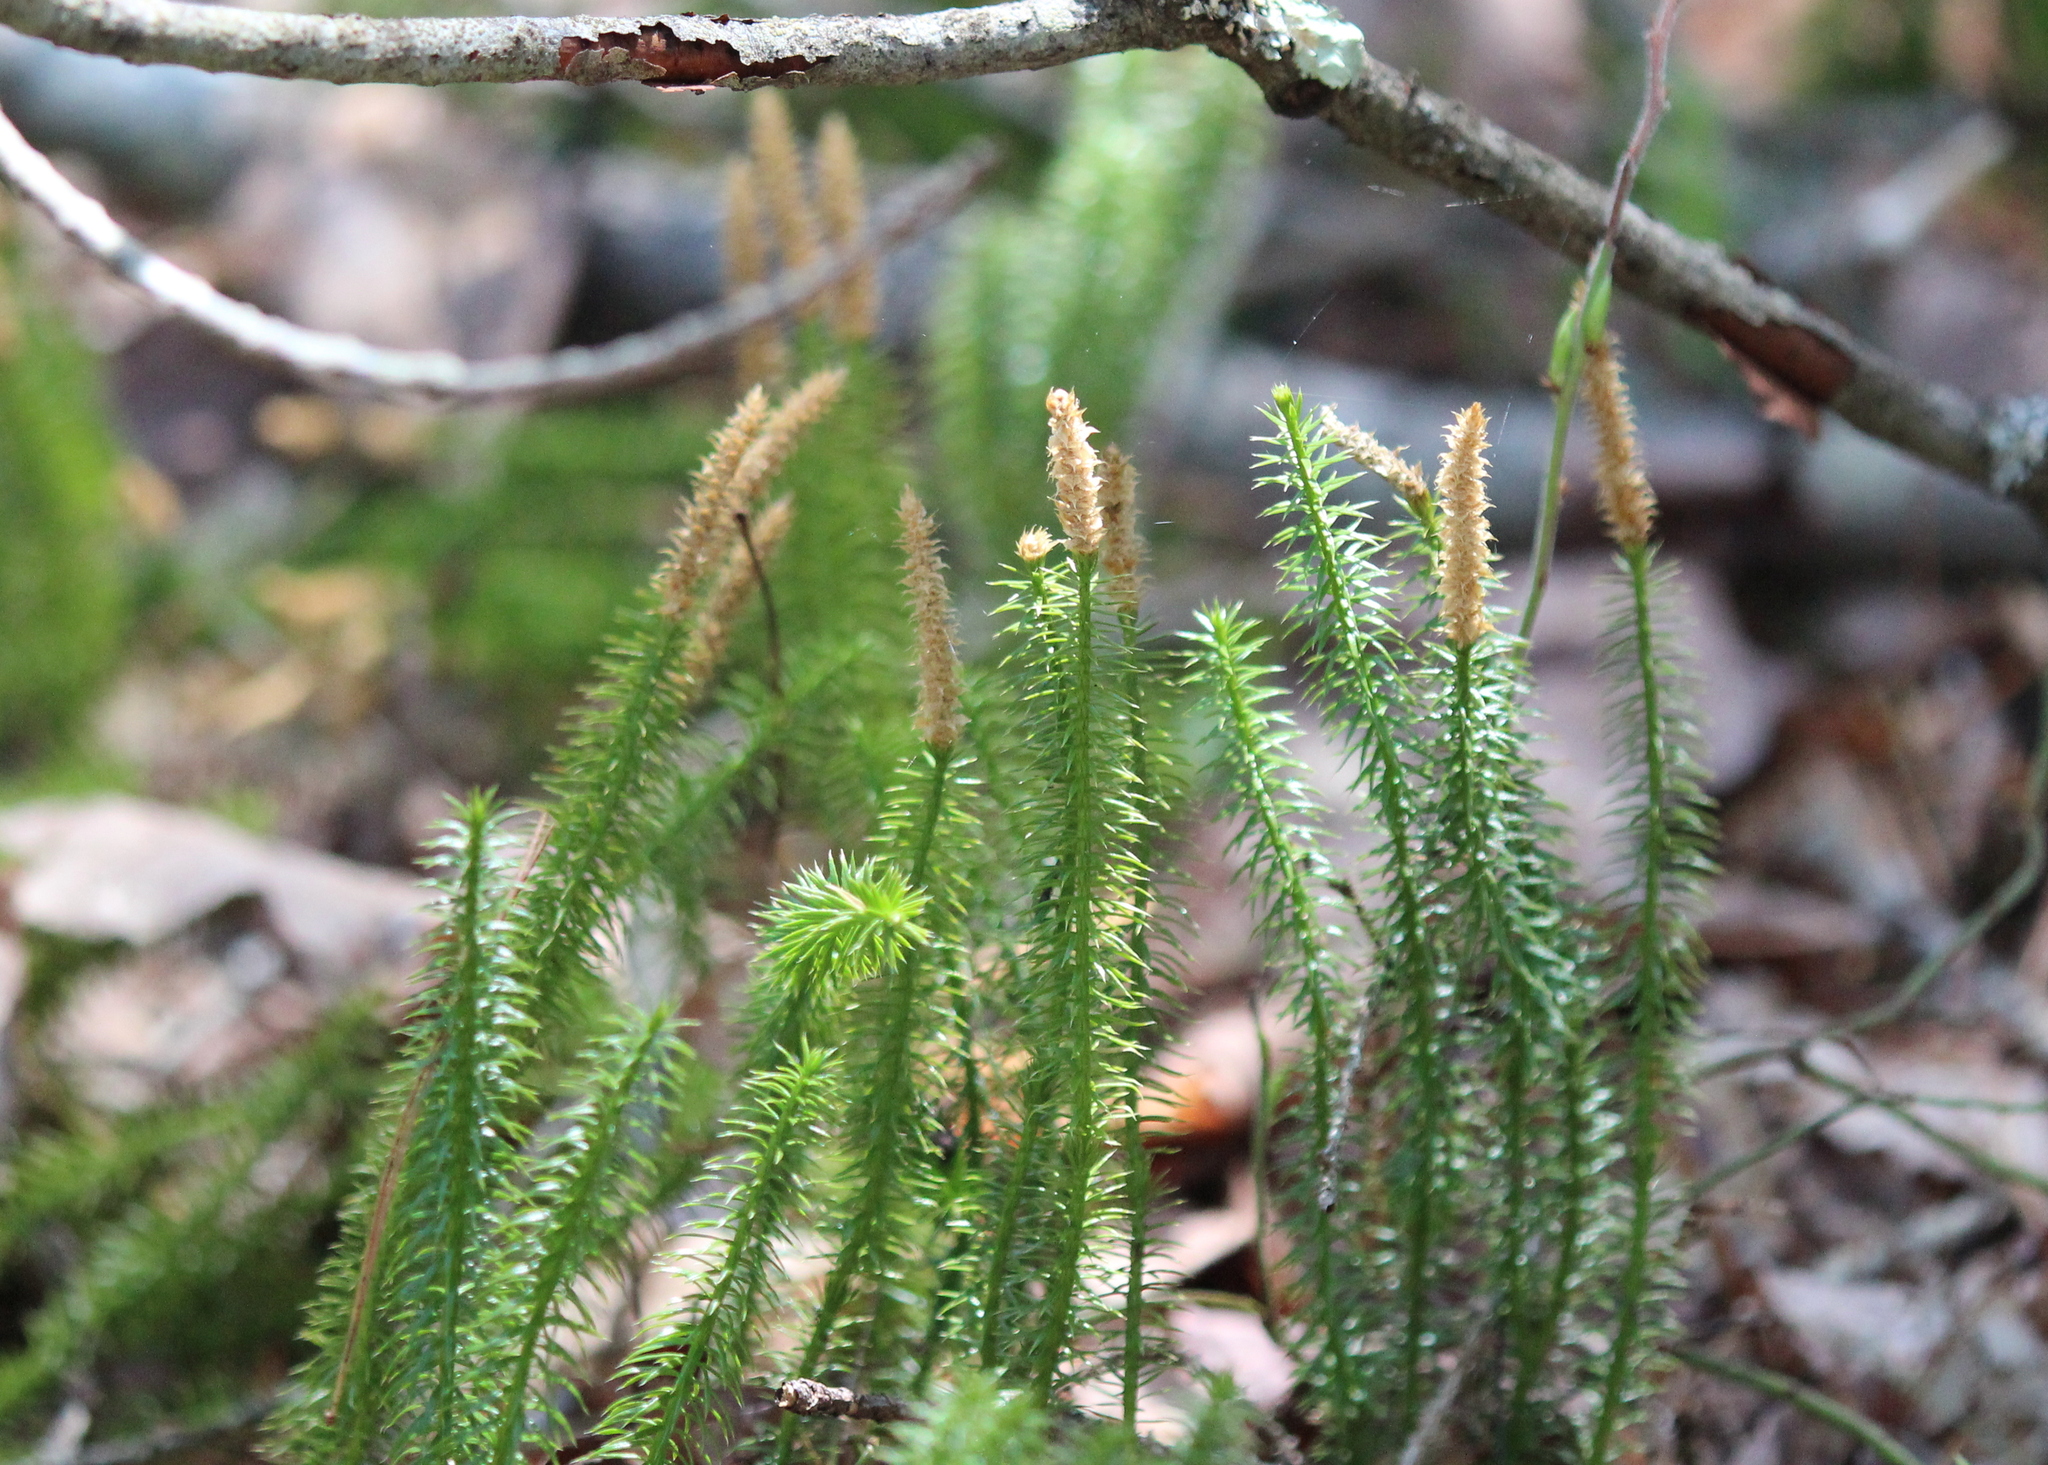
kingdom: Plantae
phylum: Tracheophyta
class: Lycopodiopsida
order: Lycopodiales
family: Lycopodiaceae
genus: Spinulum
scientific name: Spinulum annotinum
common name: Interrupted club-moss
